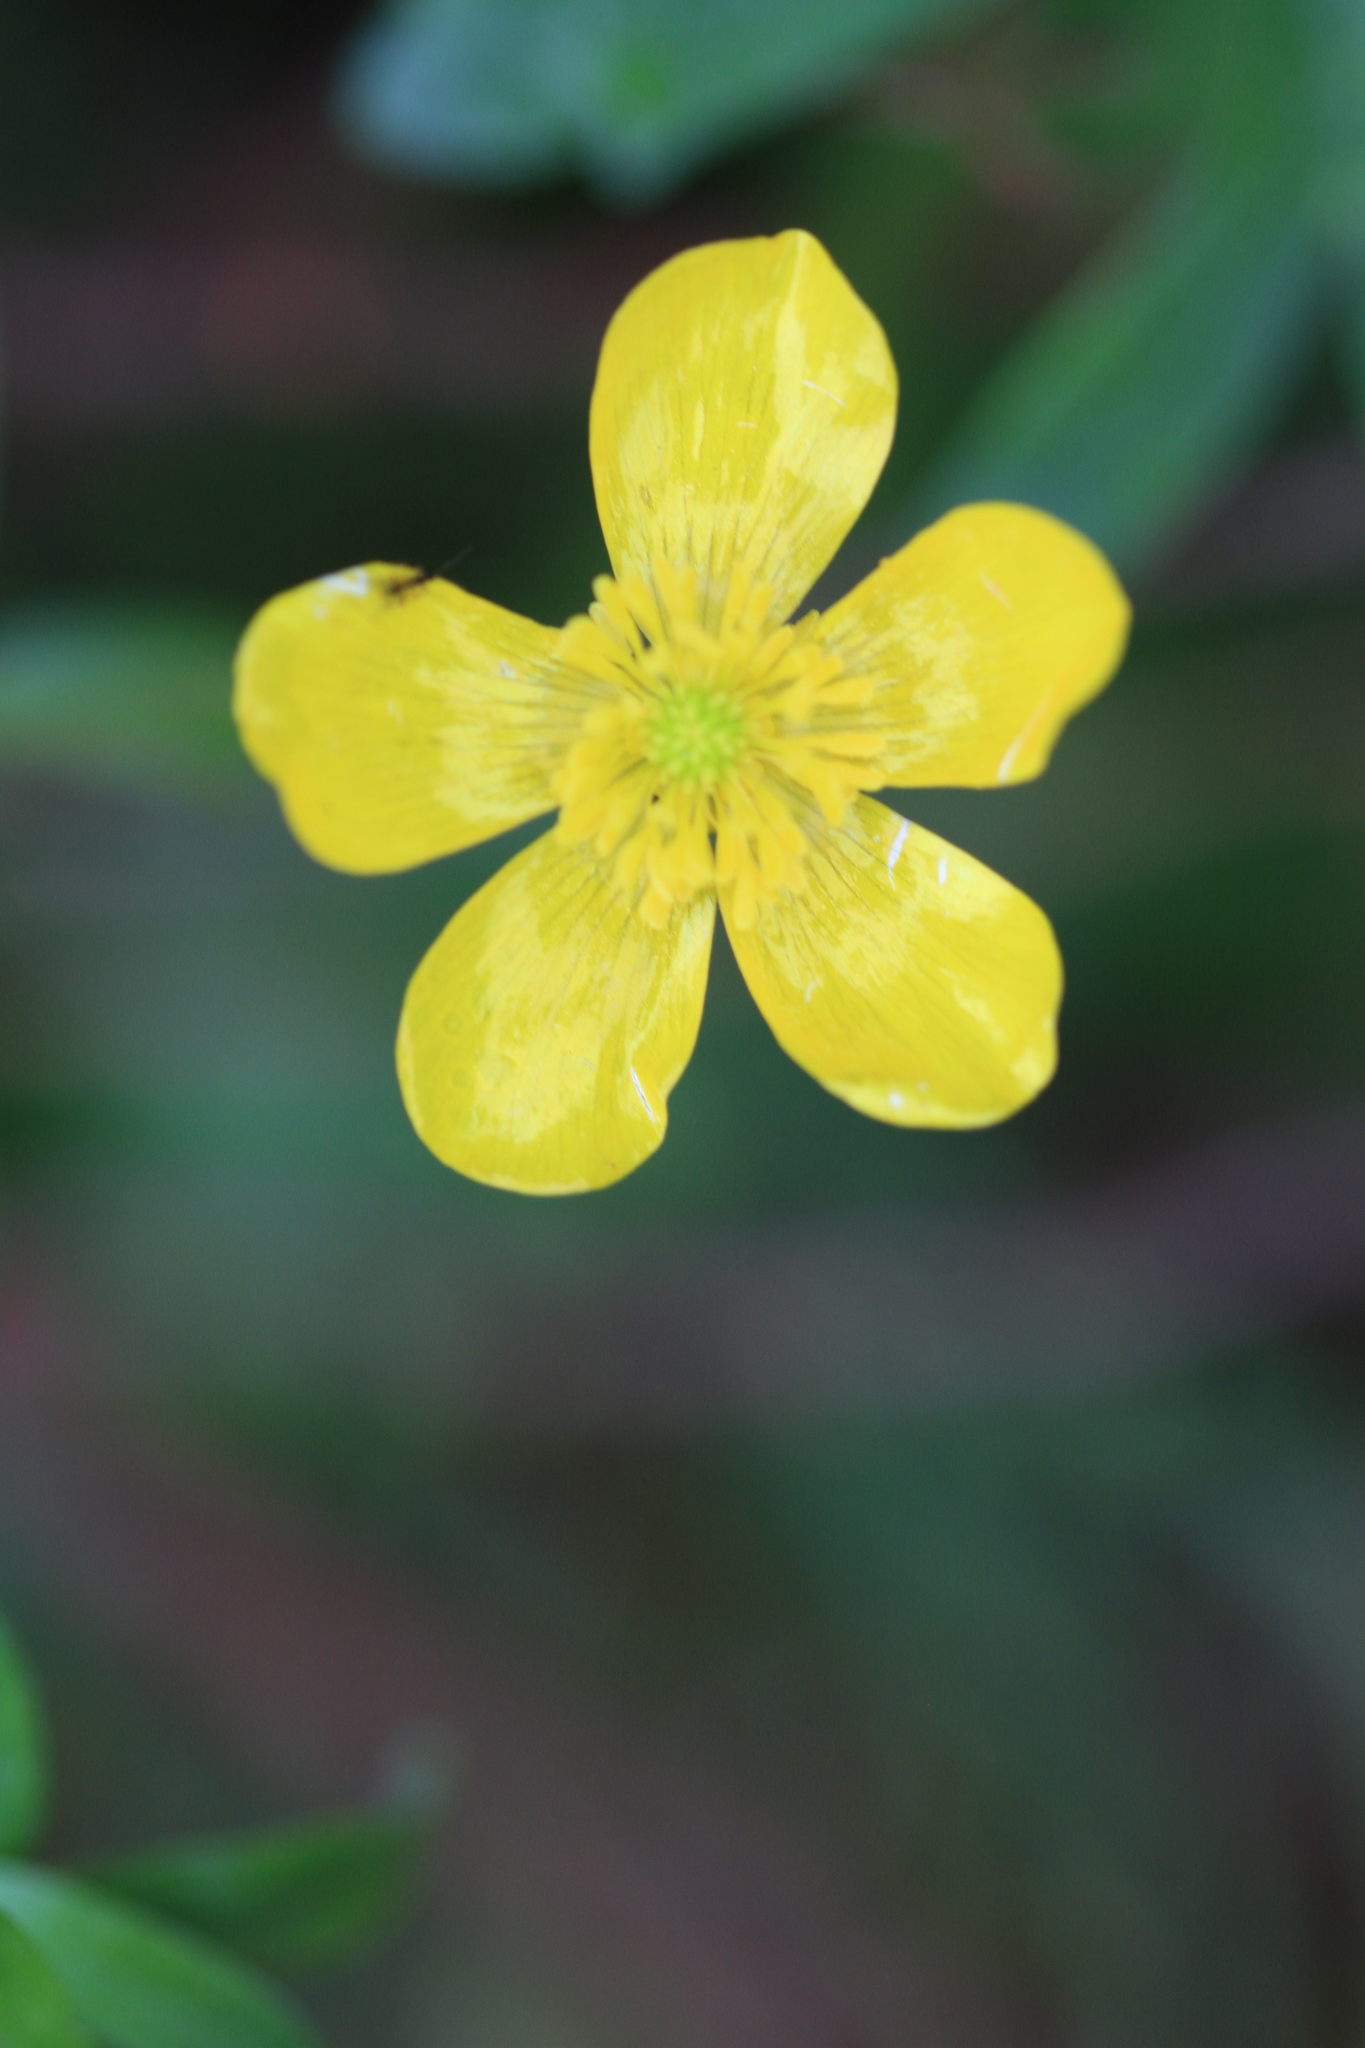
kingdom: Plantae
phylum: Tracheophyta
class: Magnoliopsida
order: Ranunculales
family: Ranunculaceae
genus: Ranunculus
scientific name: Ranunculus recurvatus
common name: Blisterwort
